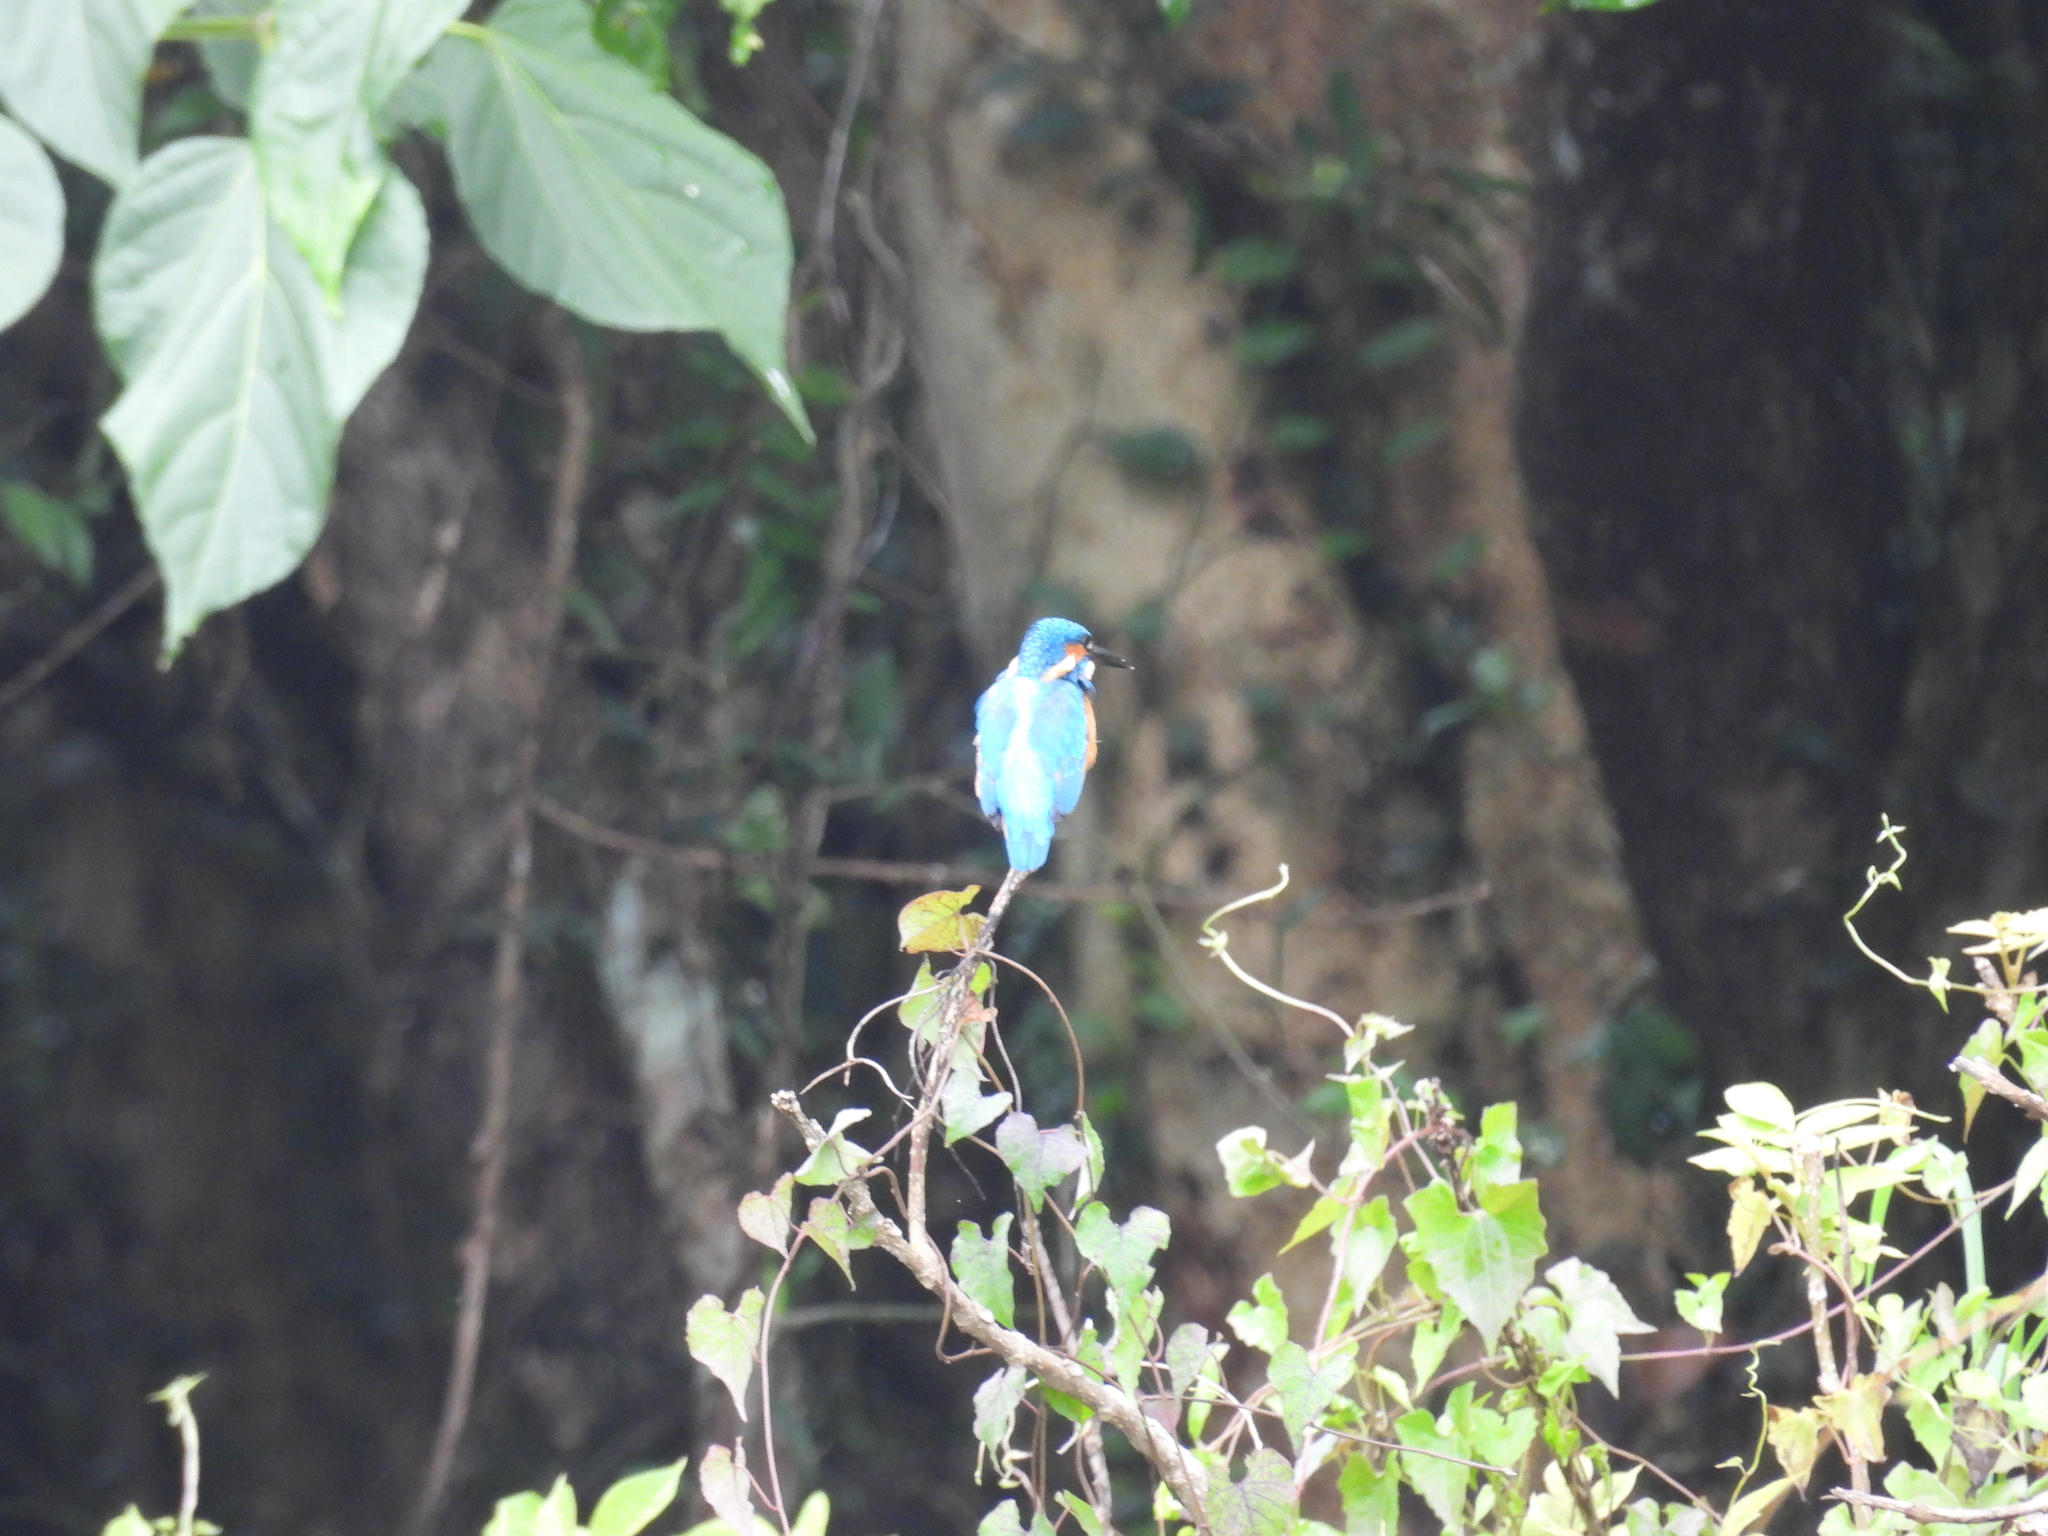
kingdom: Animalia
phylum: Chordata
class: Aves
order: Coraciiformes
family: Alcedinidae
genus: Alcedo
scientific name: Alcedo atthis
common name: Common kingfisher
